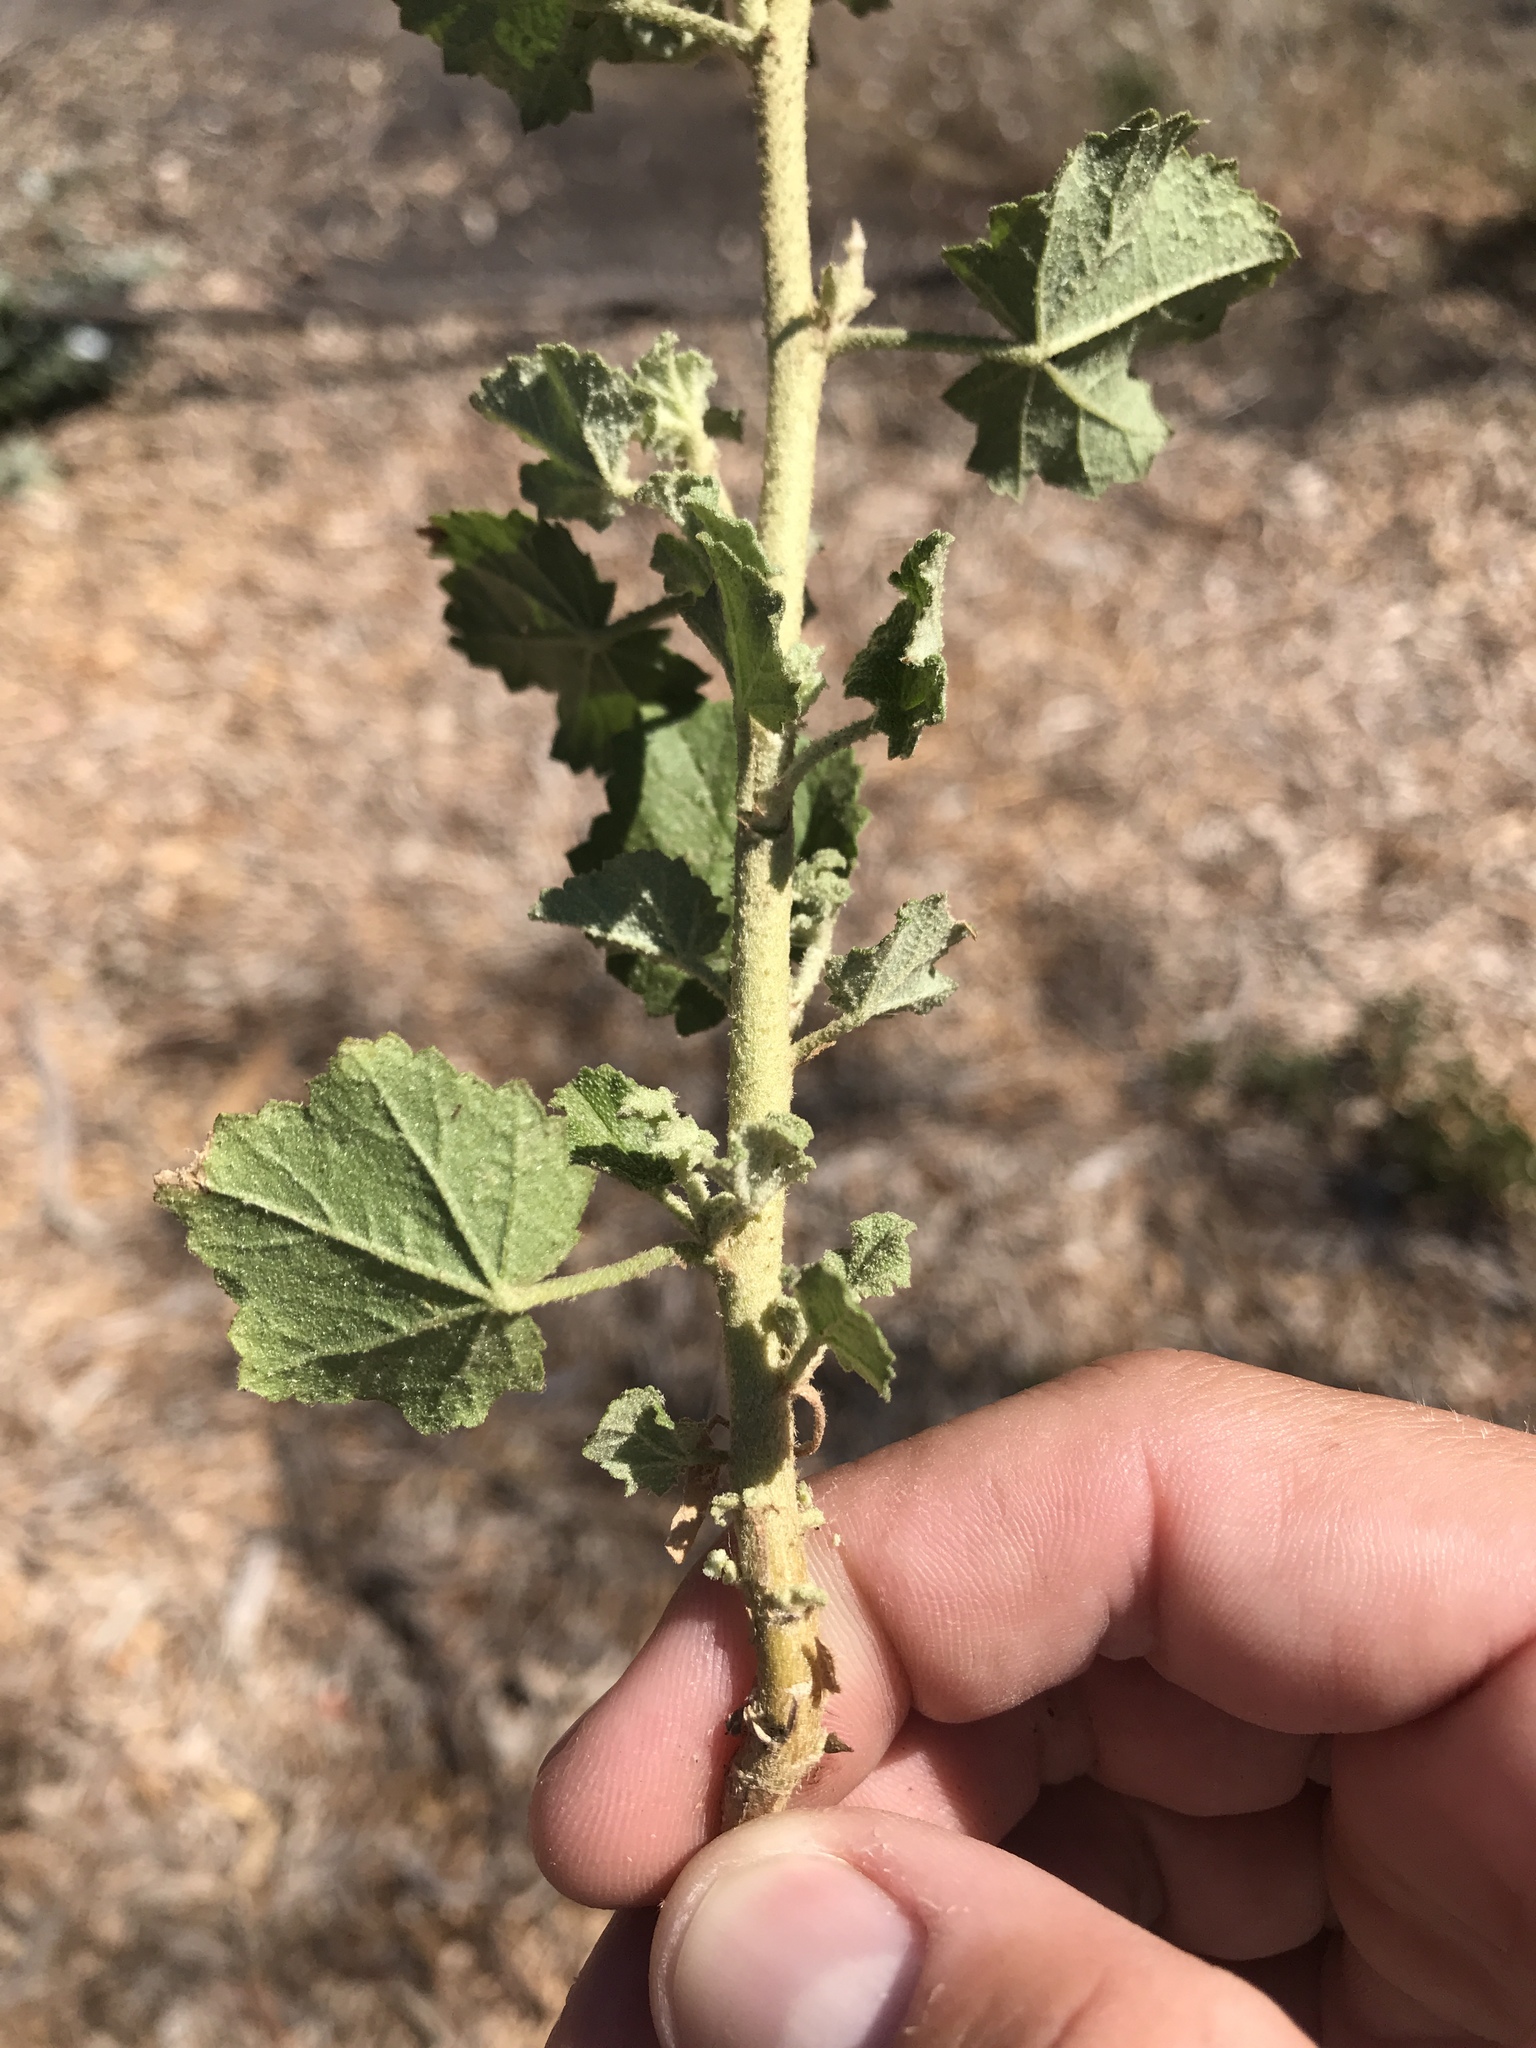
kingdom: Plantae
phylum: Tracheophyta
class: Magnoliopsida
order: Malvales
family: Malvaceae
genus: Malacothamnus
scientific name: Malacothamnus fasciculatus
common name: Sant cruz island bush-mallow
